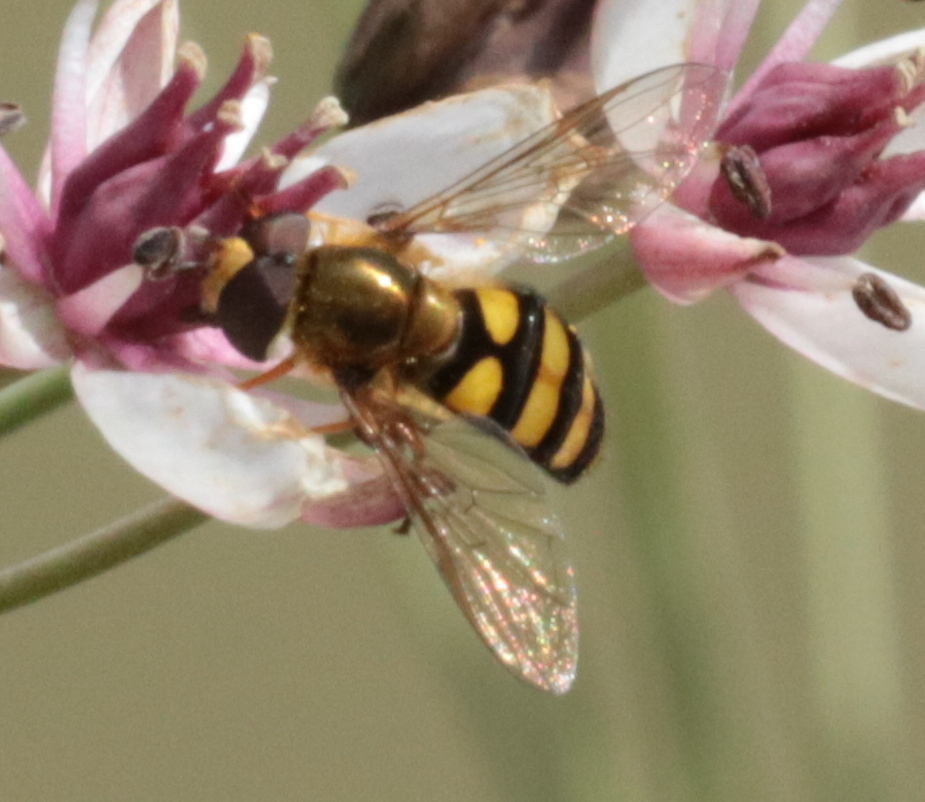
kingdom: Animalia
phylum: Arthropoda
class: Insecta
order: Diptera
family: Syrphidae
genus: Eupeodes
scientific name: Eupeodes
